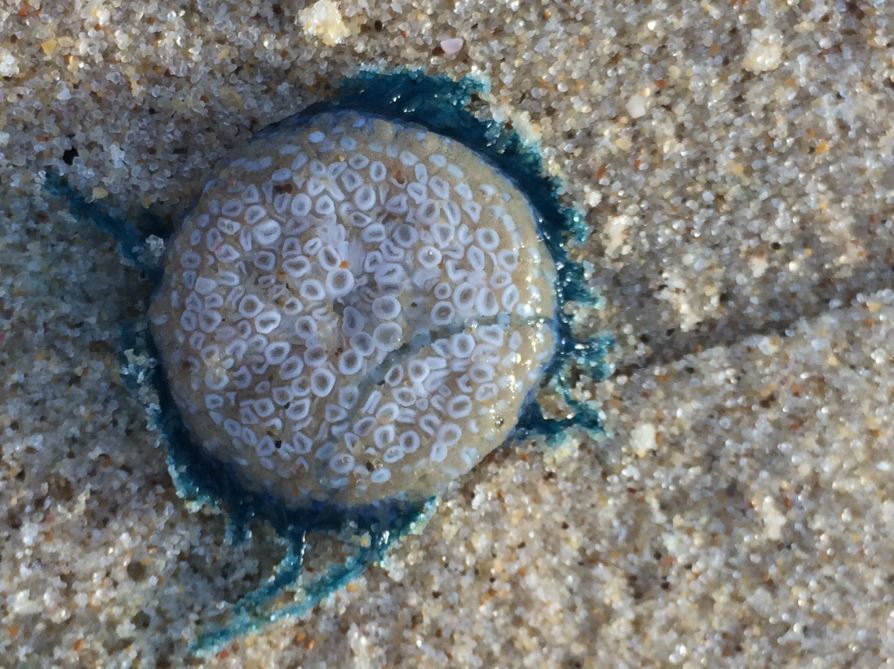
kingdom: Animalia
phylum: Cnidaria
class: Hydrozoa
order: Anthoathecata
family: Porpitidae
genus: Porpita
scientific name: Porpita porpita
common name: Blue button
